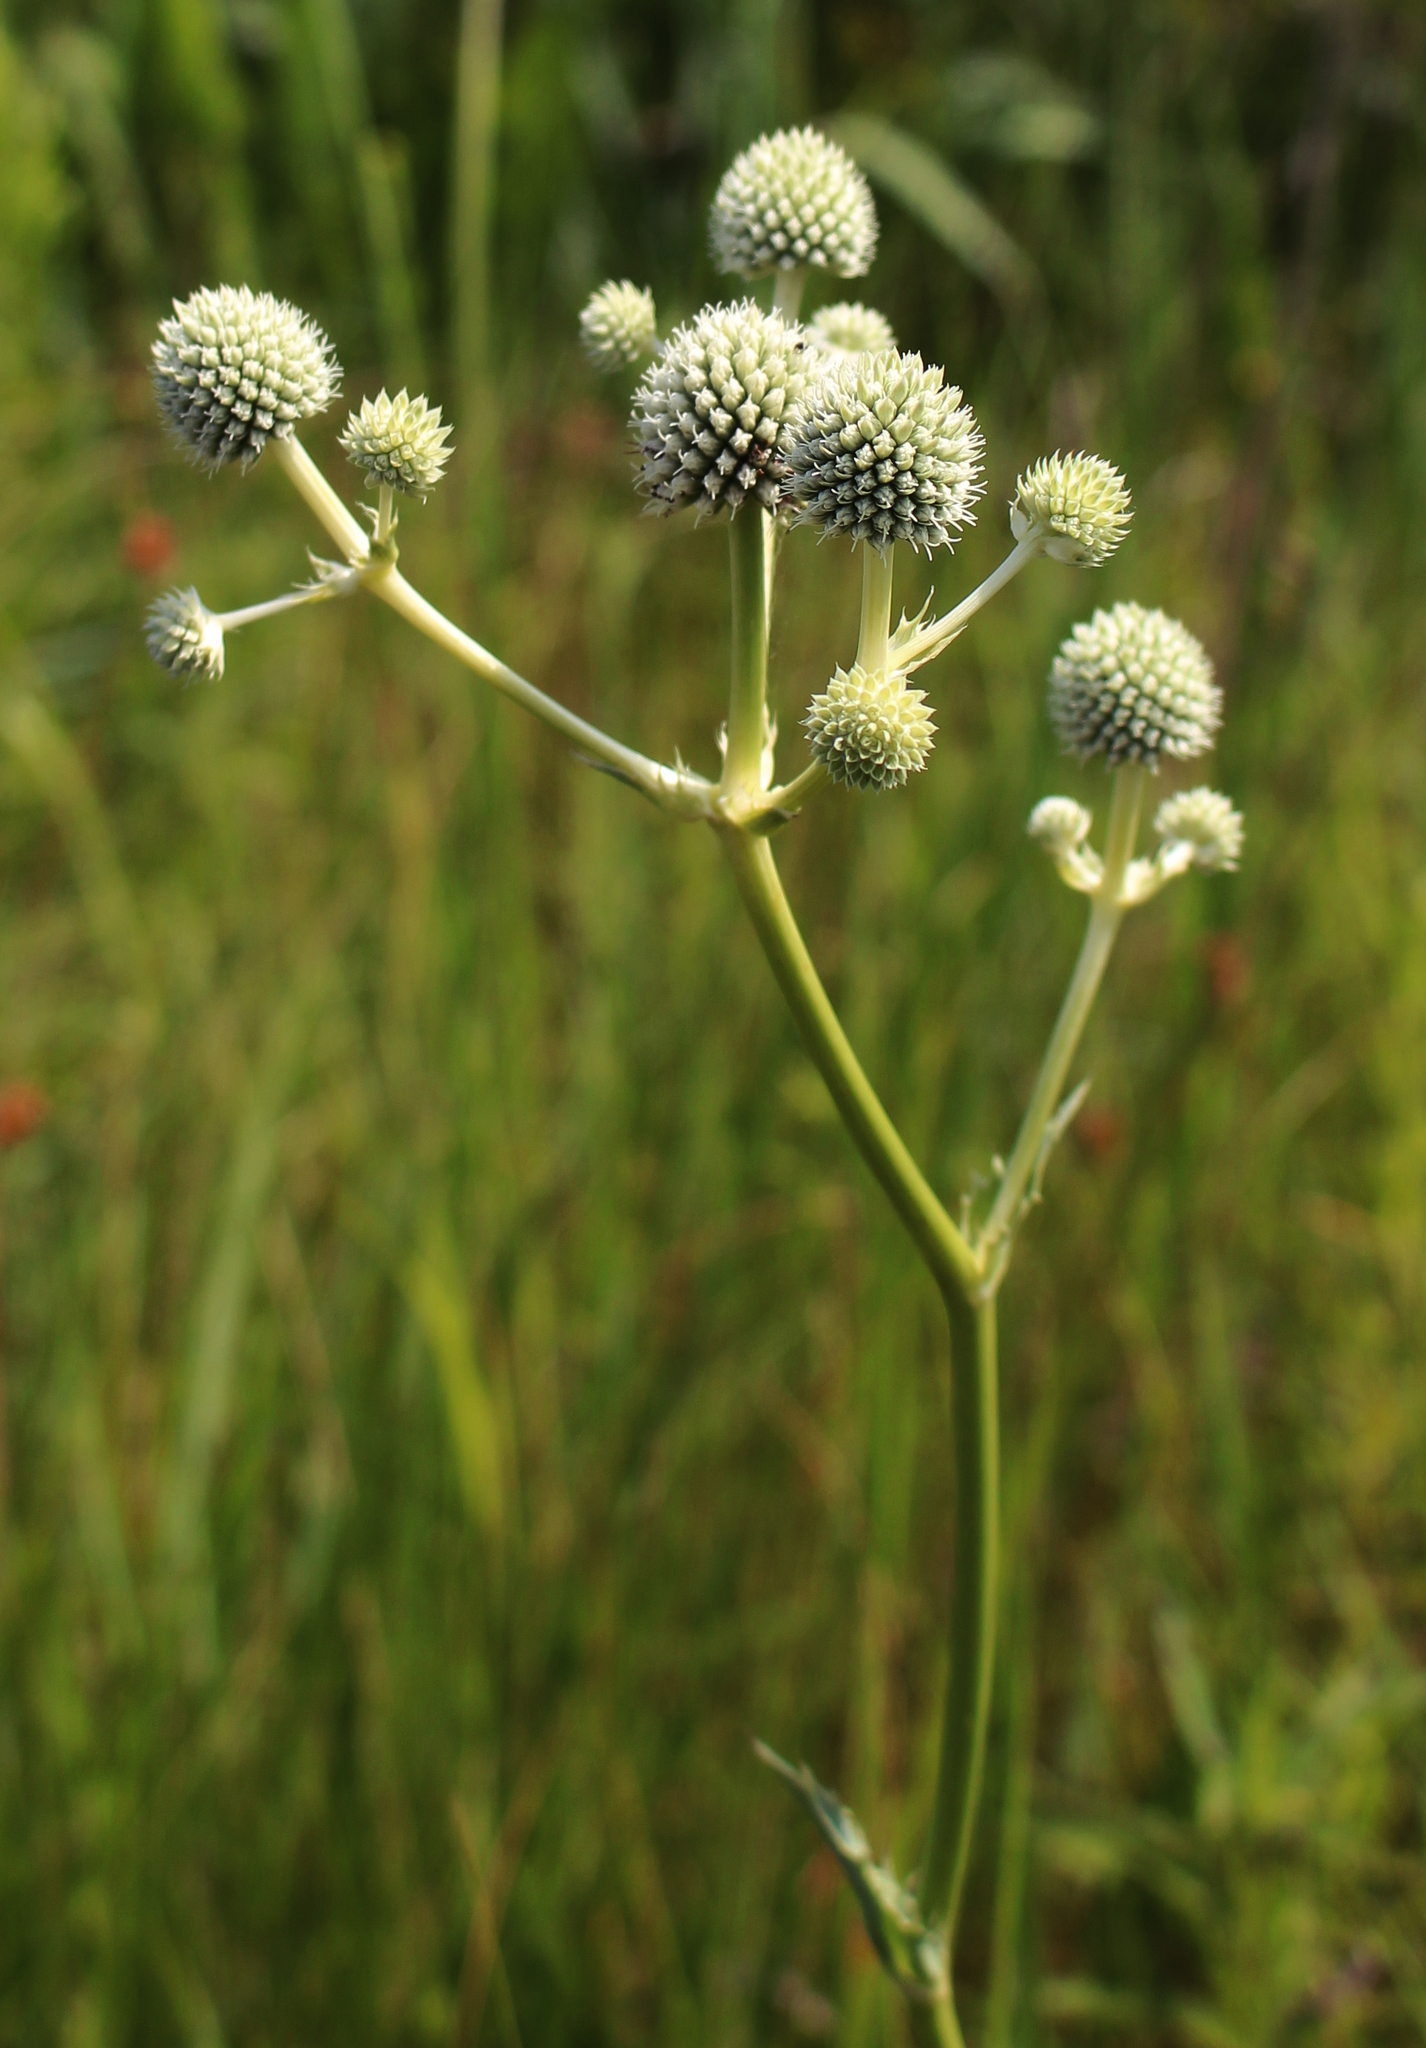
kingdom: Plantae
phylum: Tracheophyta
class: Magnoliopsida
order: Apiales
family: Apiaceae
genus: Eryngium
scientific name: Eryngium yuccifolium
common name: Button eryngo
